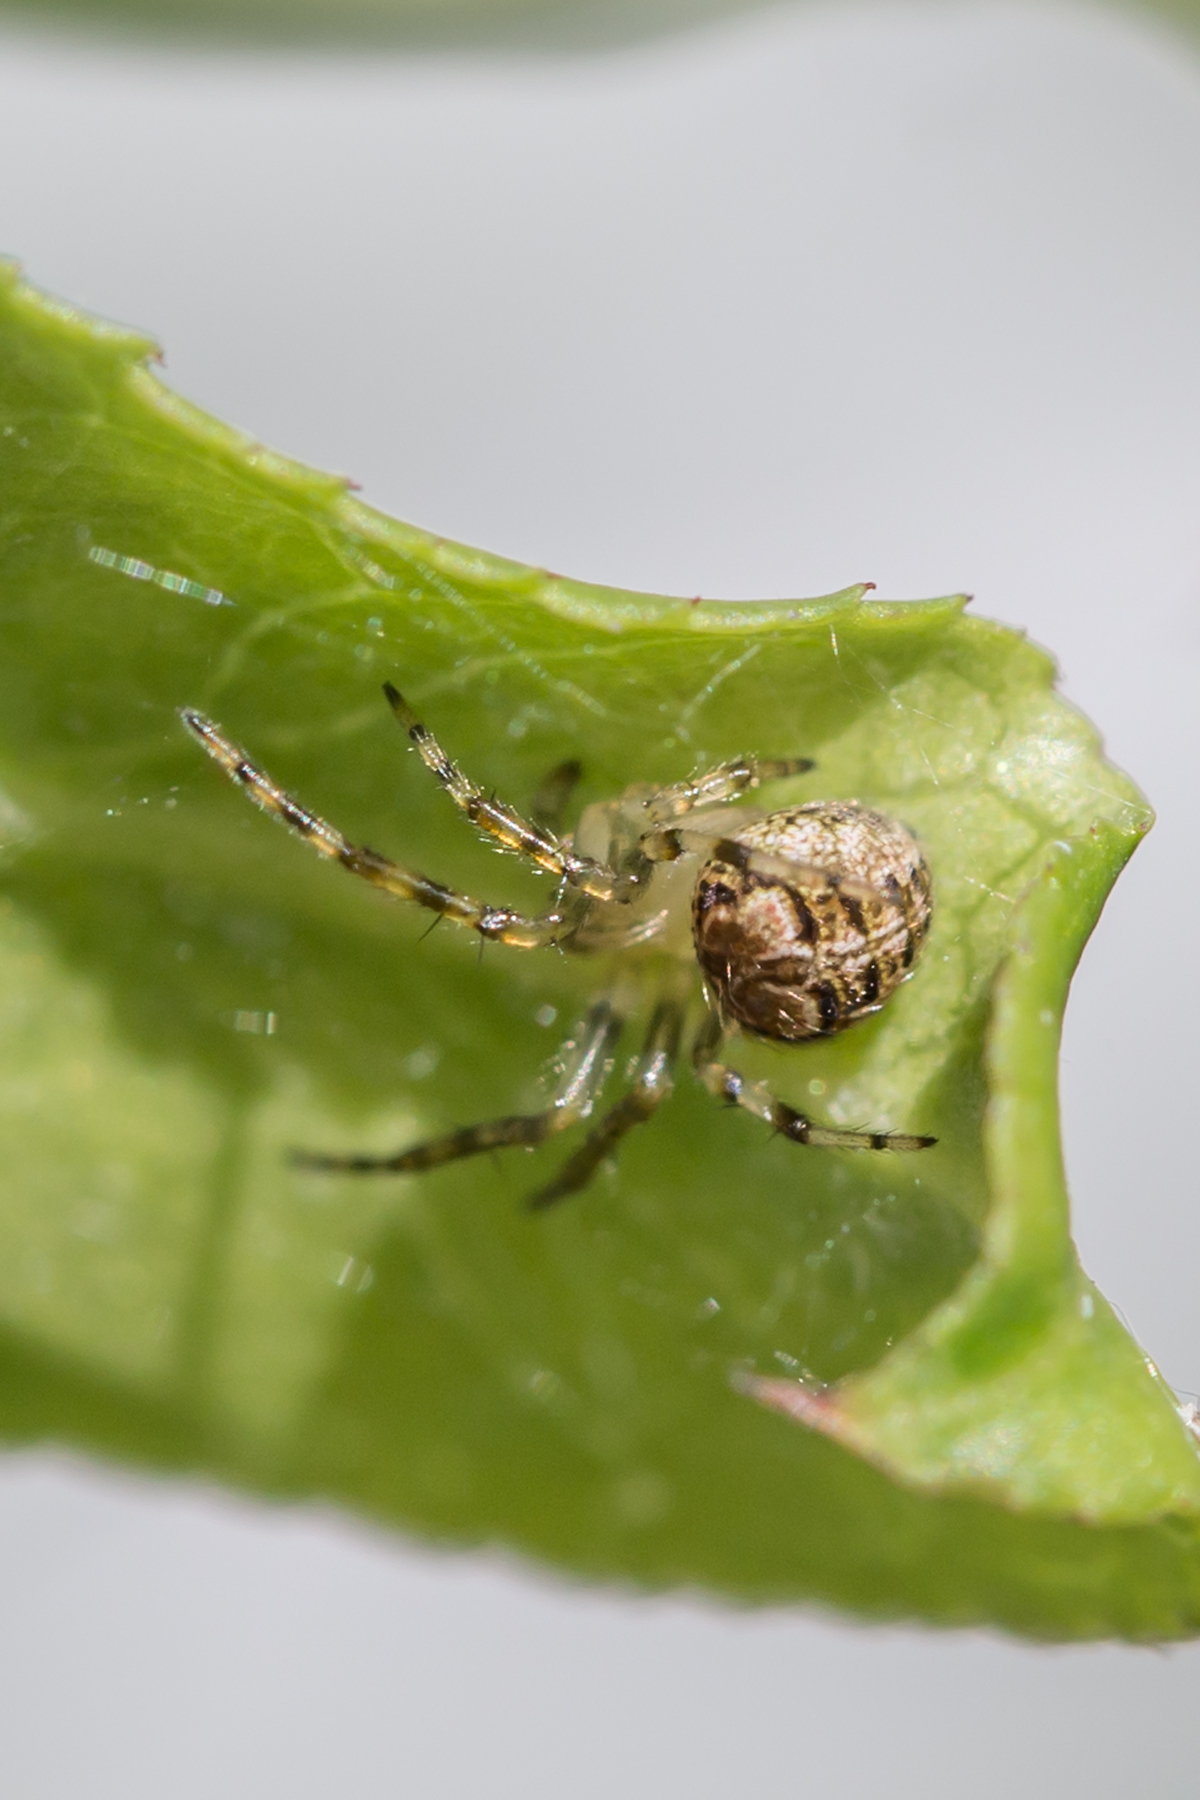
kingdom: Animalia
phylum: Arthropoda
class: Arachnida
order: Araneae
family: Araneidae
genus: Araneus
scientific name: Araneus pegnia
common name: Orb weavers
